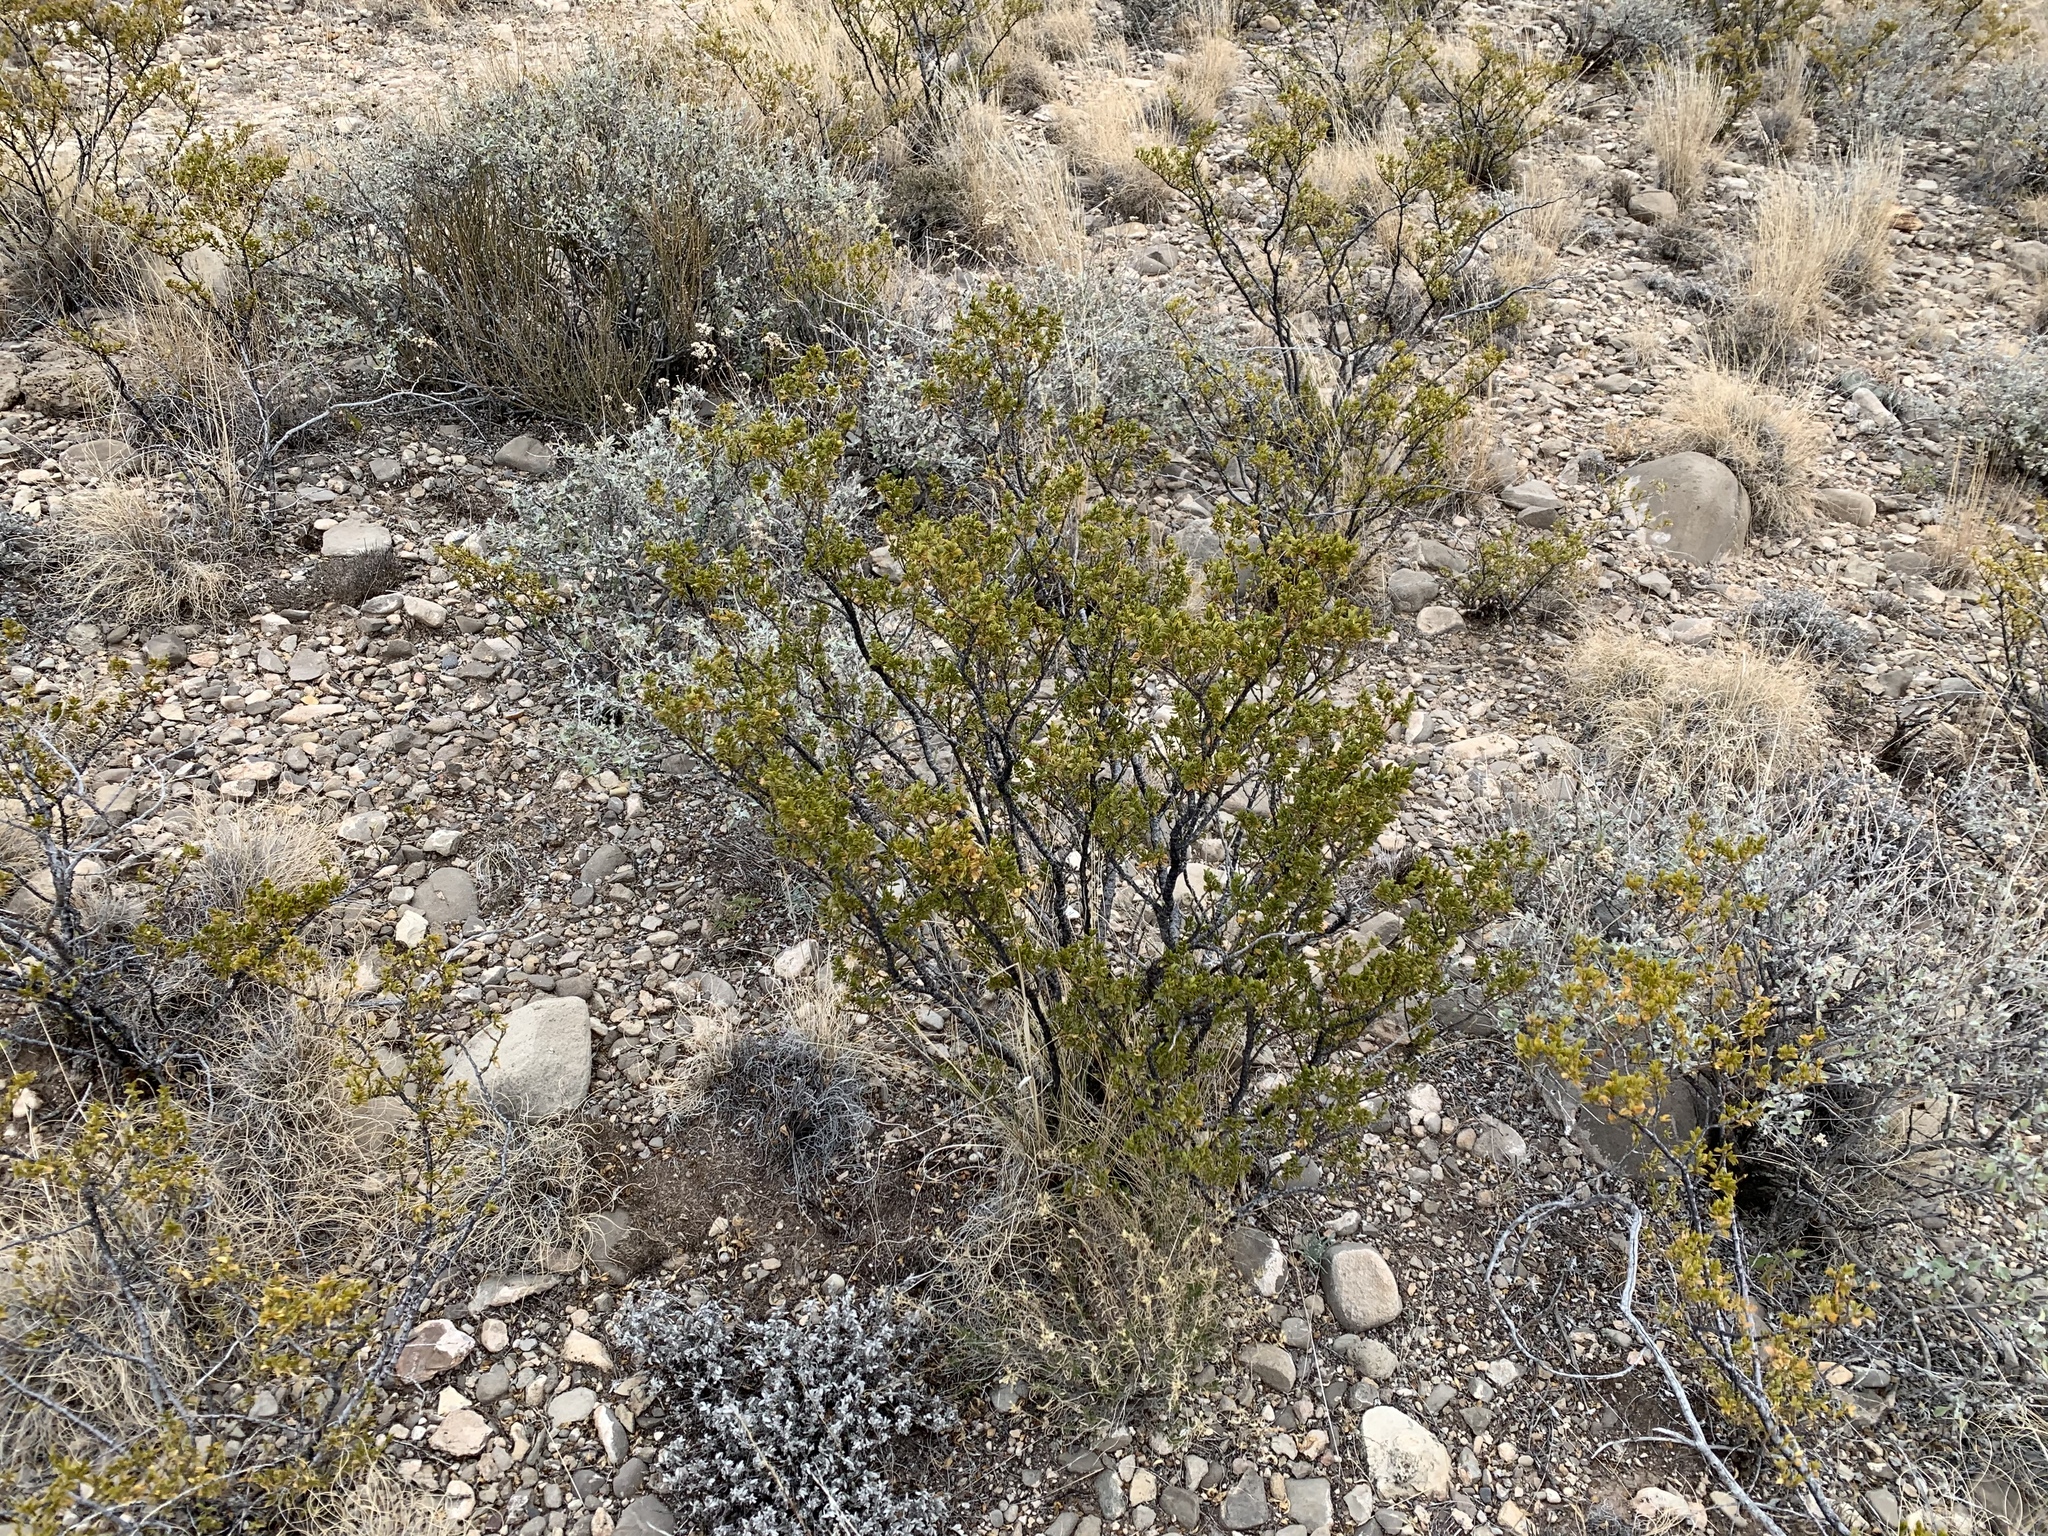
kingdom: Plantae
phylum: Tracheophyta
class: Magnoliopsida
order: Zygophyllales
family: Zygophyllaceae
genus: Larrea
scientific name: Larrea tridentata
